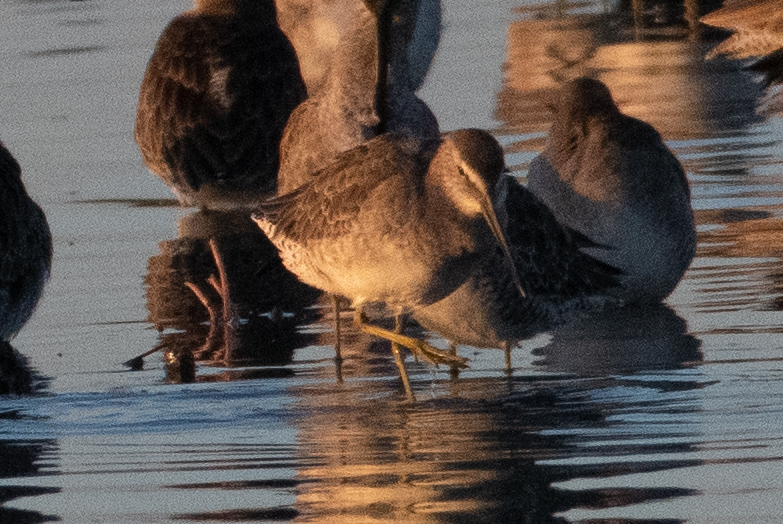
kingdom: Animalia
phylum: Chordata
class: Aves
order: Charadriiformes
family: Scolopacidae
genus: Limnodromus
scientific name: Limnodromus scolopaceus
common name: Long-billed dowitcher
